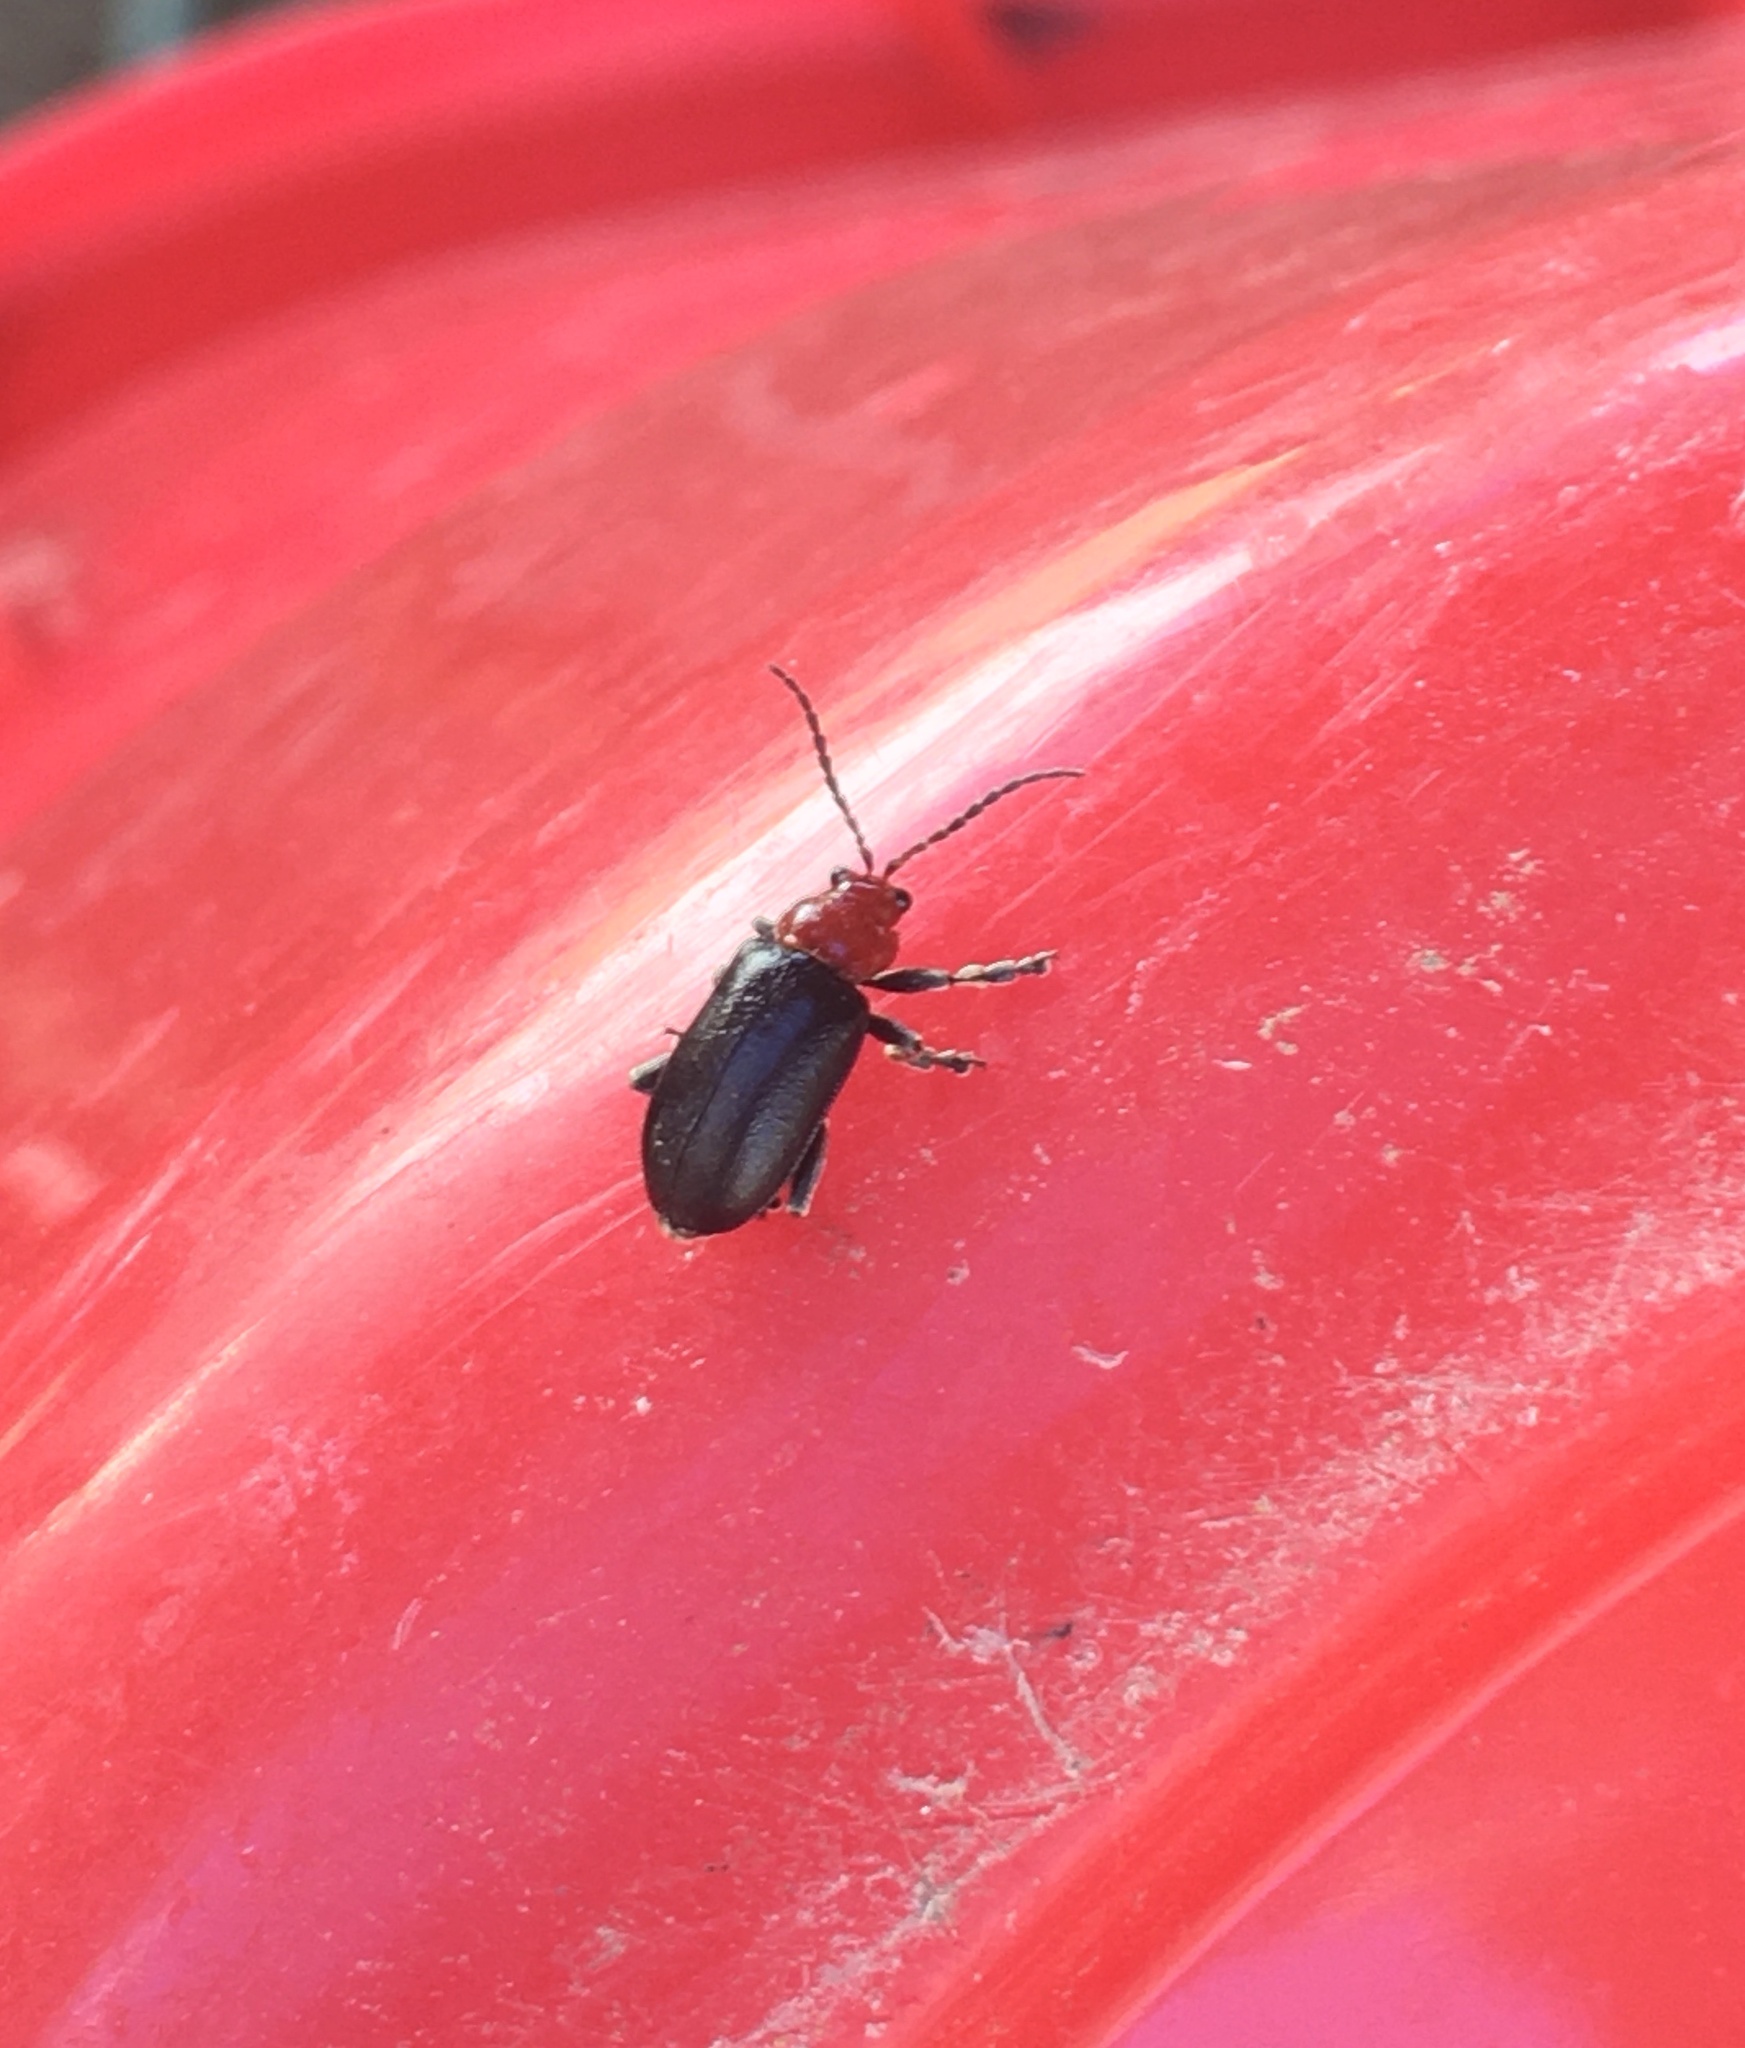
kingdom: Animalia
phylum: Arthropoda
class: Insecta
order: Coleoptera
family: Chrysomelidae
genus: Cacoscelis
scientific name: Cacoscelis
